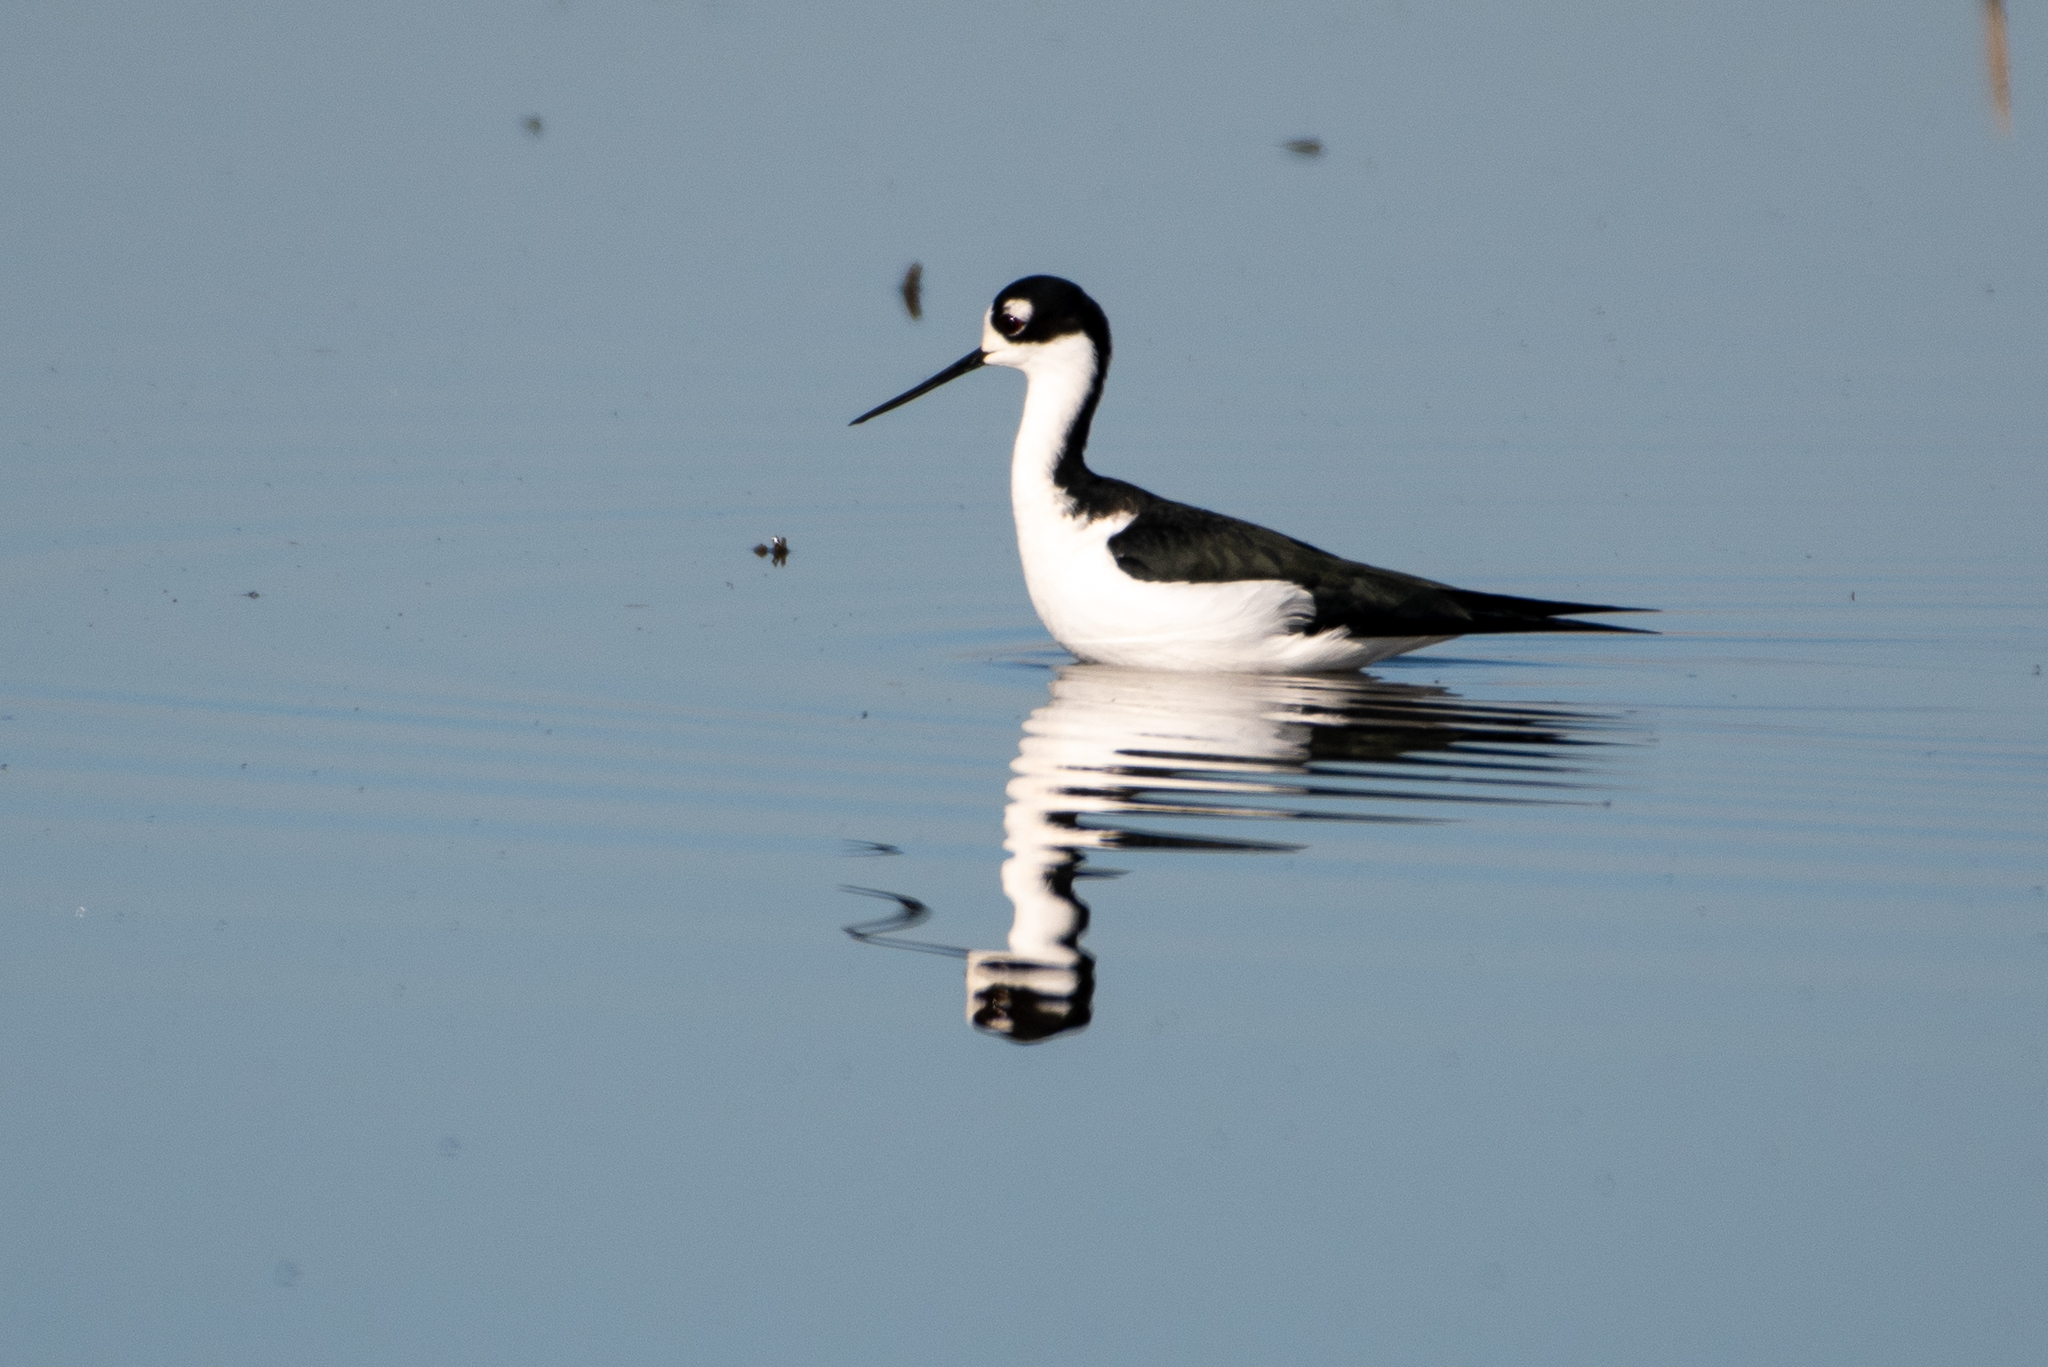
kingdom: Animalia
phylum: Chordata
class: Aves
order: Charadriiformes
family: Recurvirostridae
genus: Himantopus
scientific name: Himantopus mexicanus
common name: Black-necked stilt
